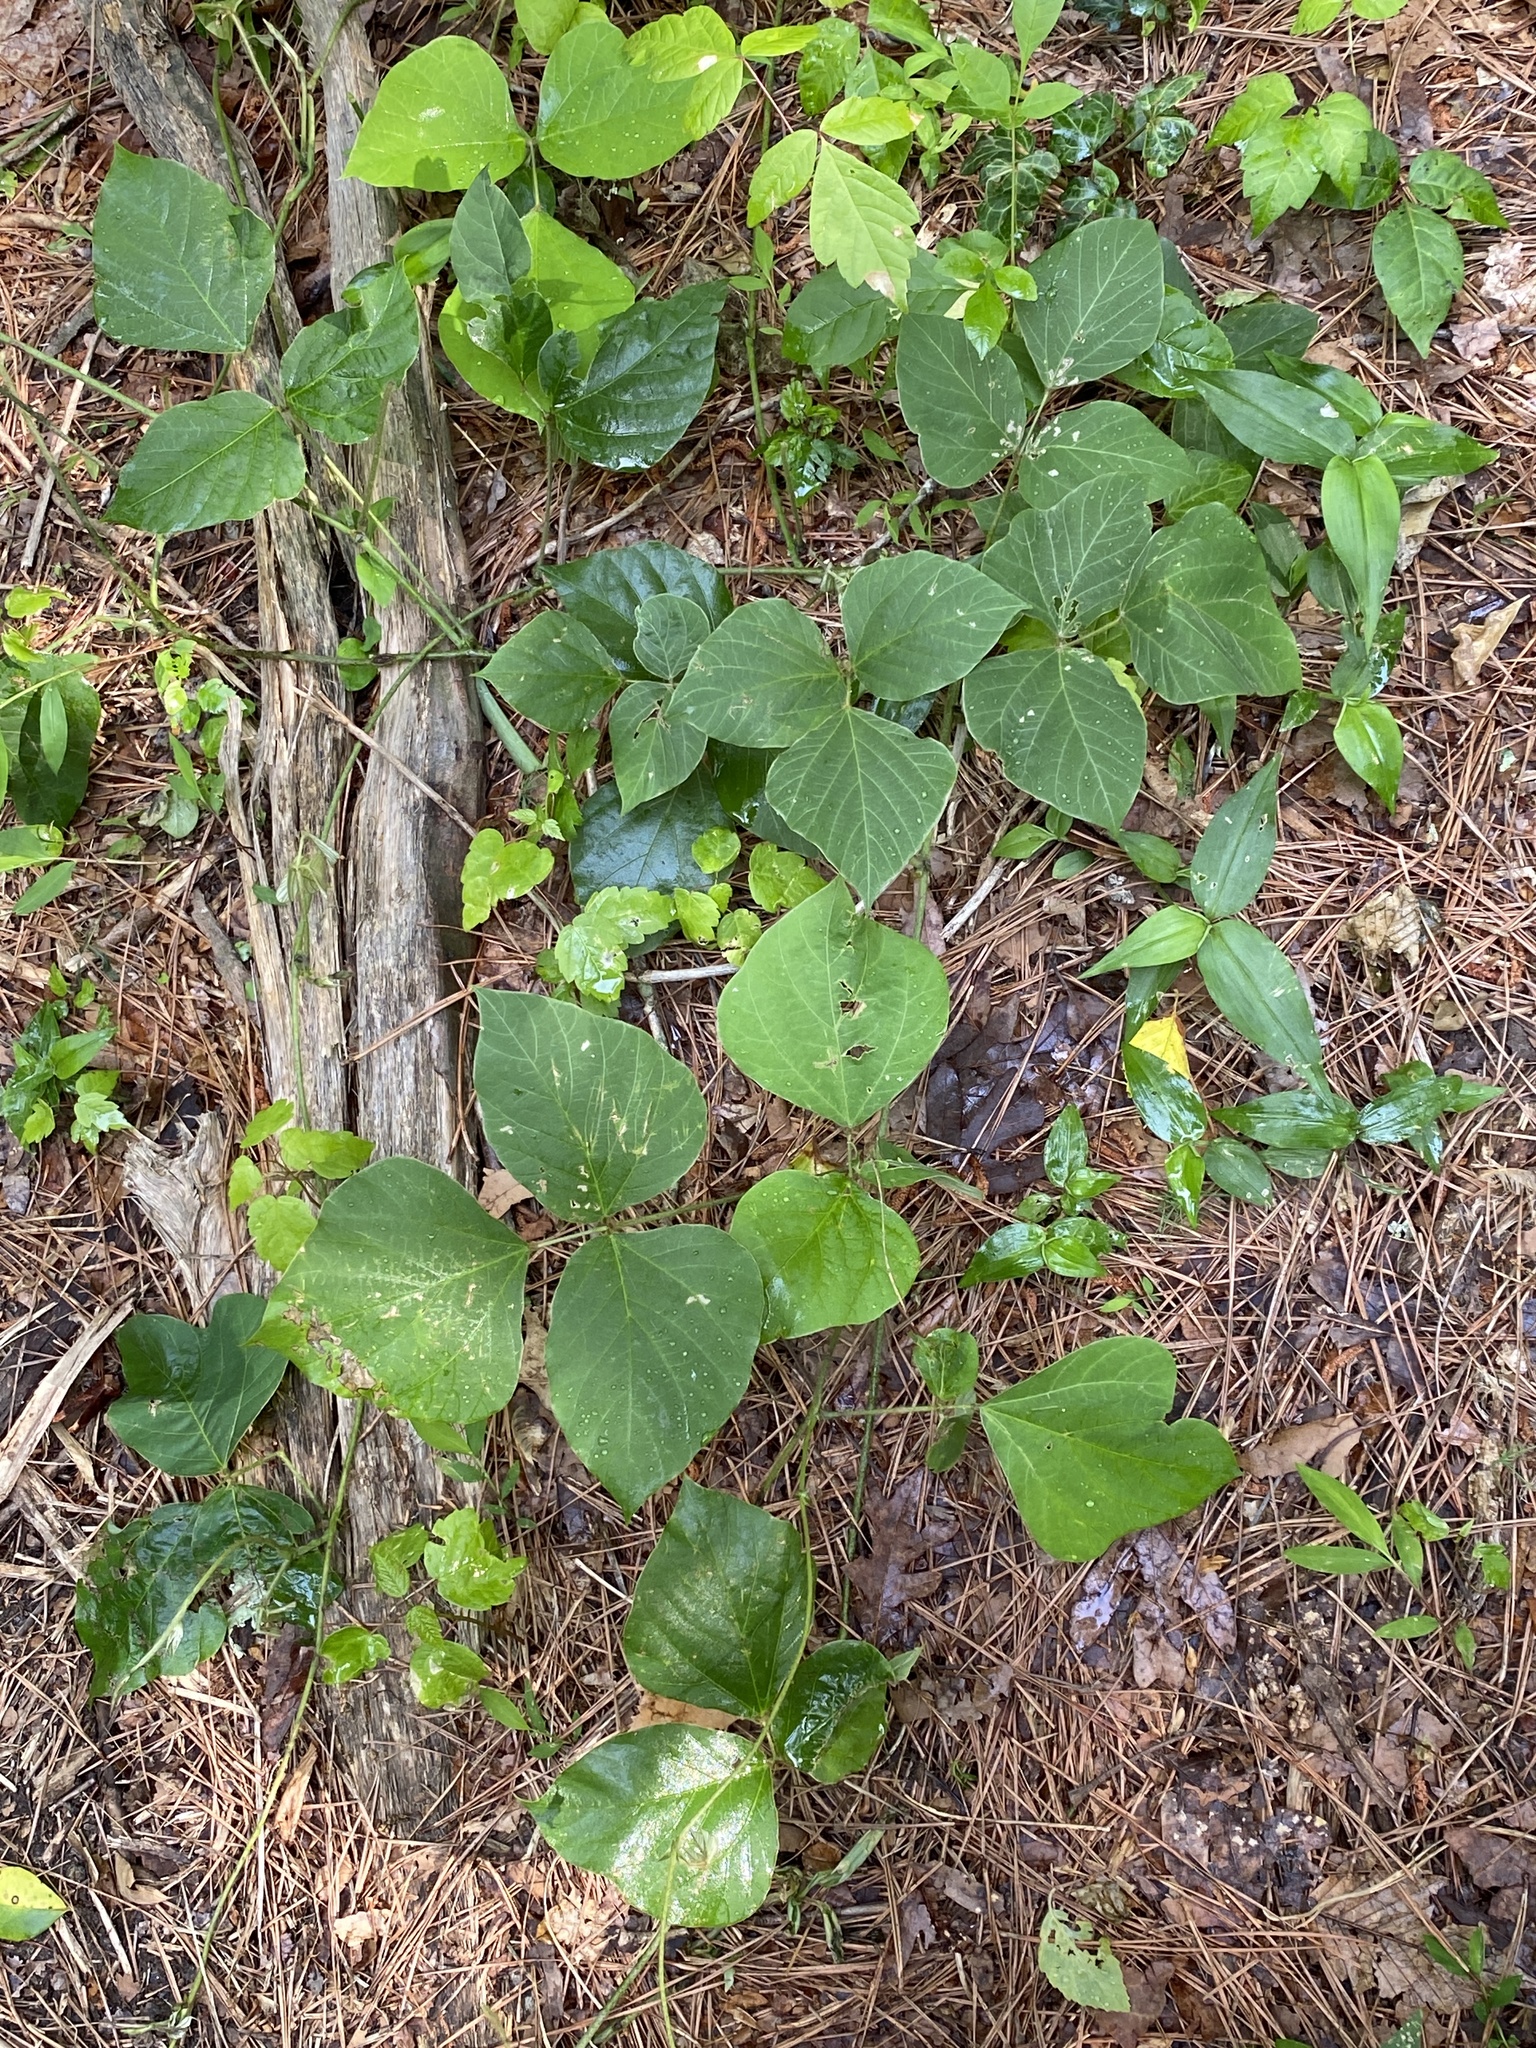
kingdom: Plantae
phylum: Tracheophyta
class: Magnoliopsida
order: Fabales
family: Fabaceae
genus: Pueraria
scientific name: Pueraria montana
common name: Kudzu
